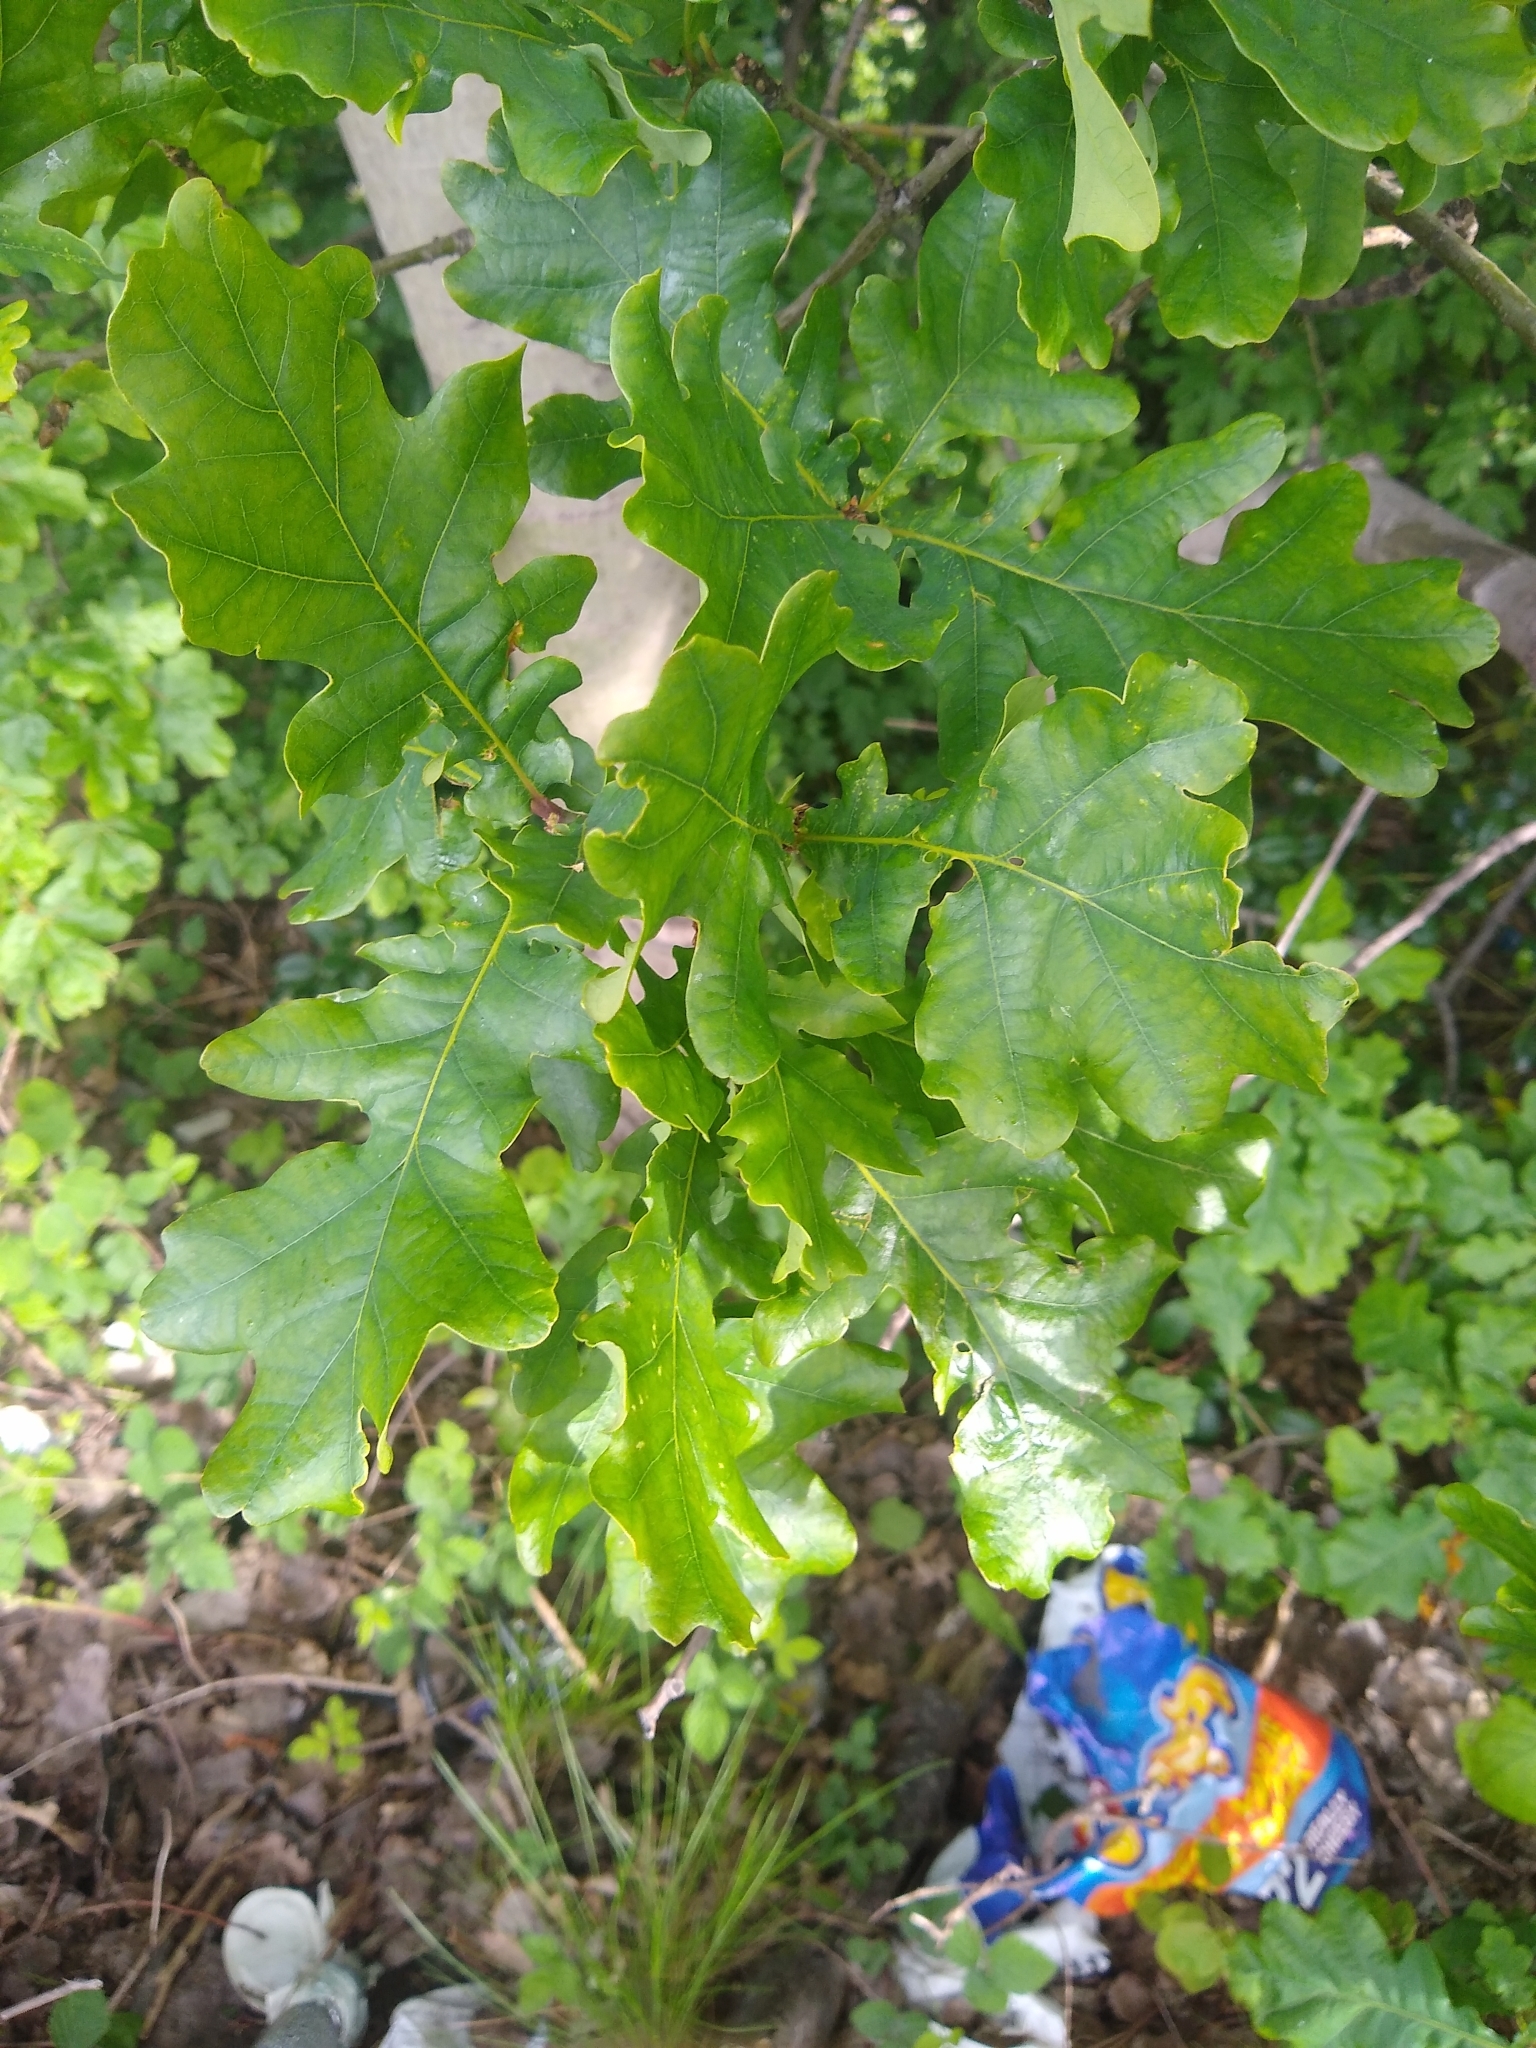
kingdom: Plantae
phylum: Tracheophyta
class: Magnoliopsida
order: Fagales
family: Fagaceae
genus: Quercus
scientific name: Quercus robur
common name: Pedunculate oak
